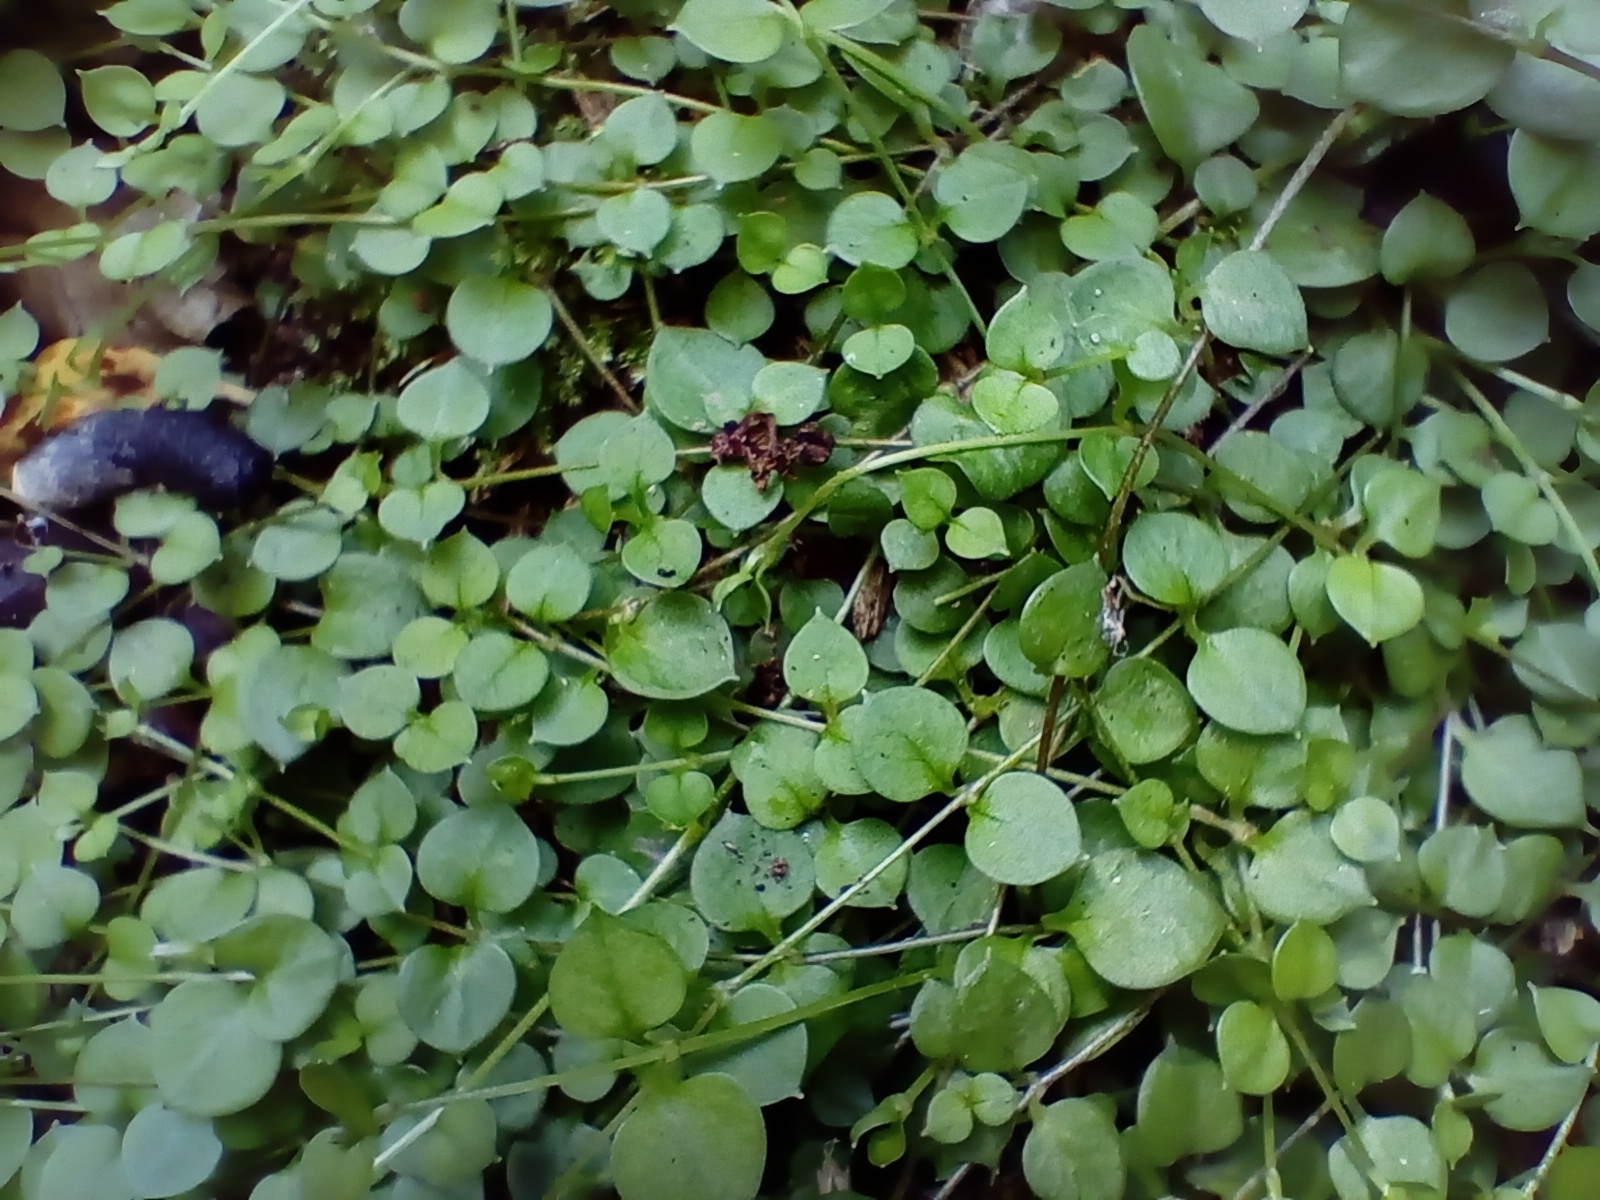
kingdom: Plantae
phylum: Tracheophyta
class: Magnoliopsida
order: Caryophyllales
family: Caryophyllaceae
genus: Stellaria
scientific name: Stellaria parviflora
